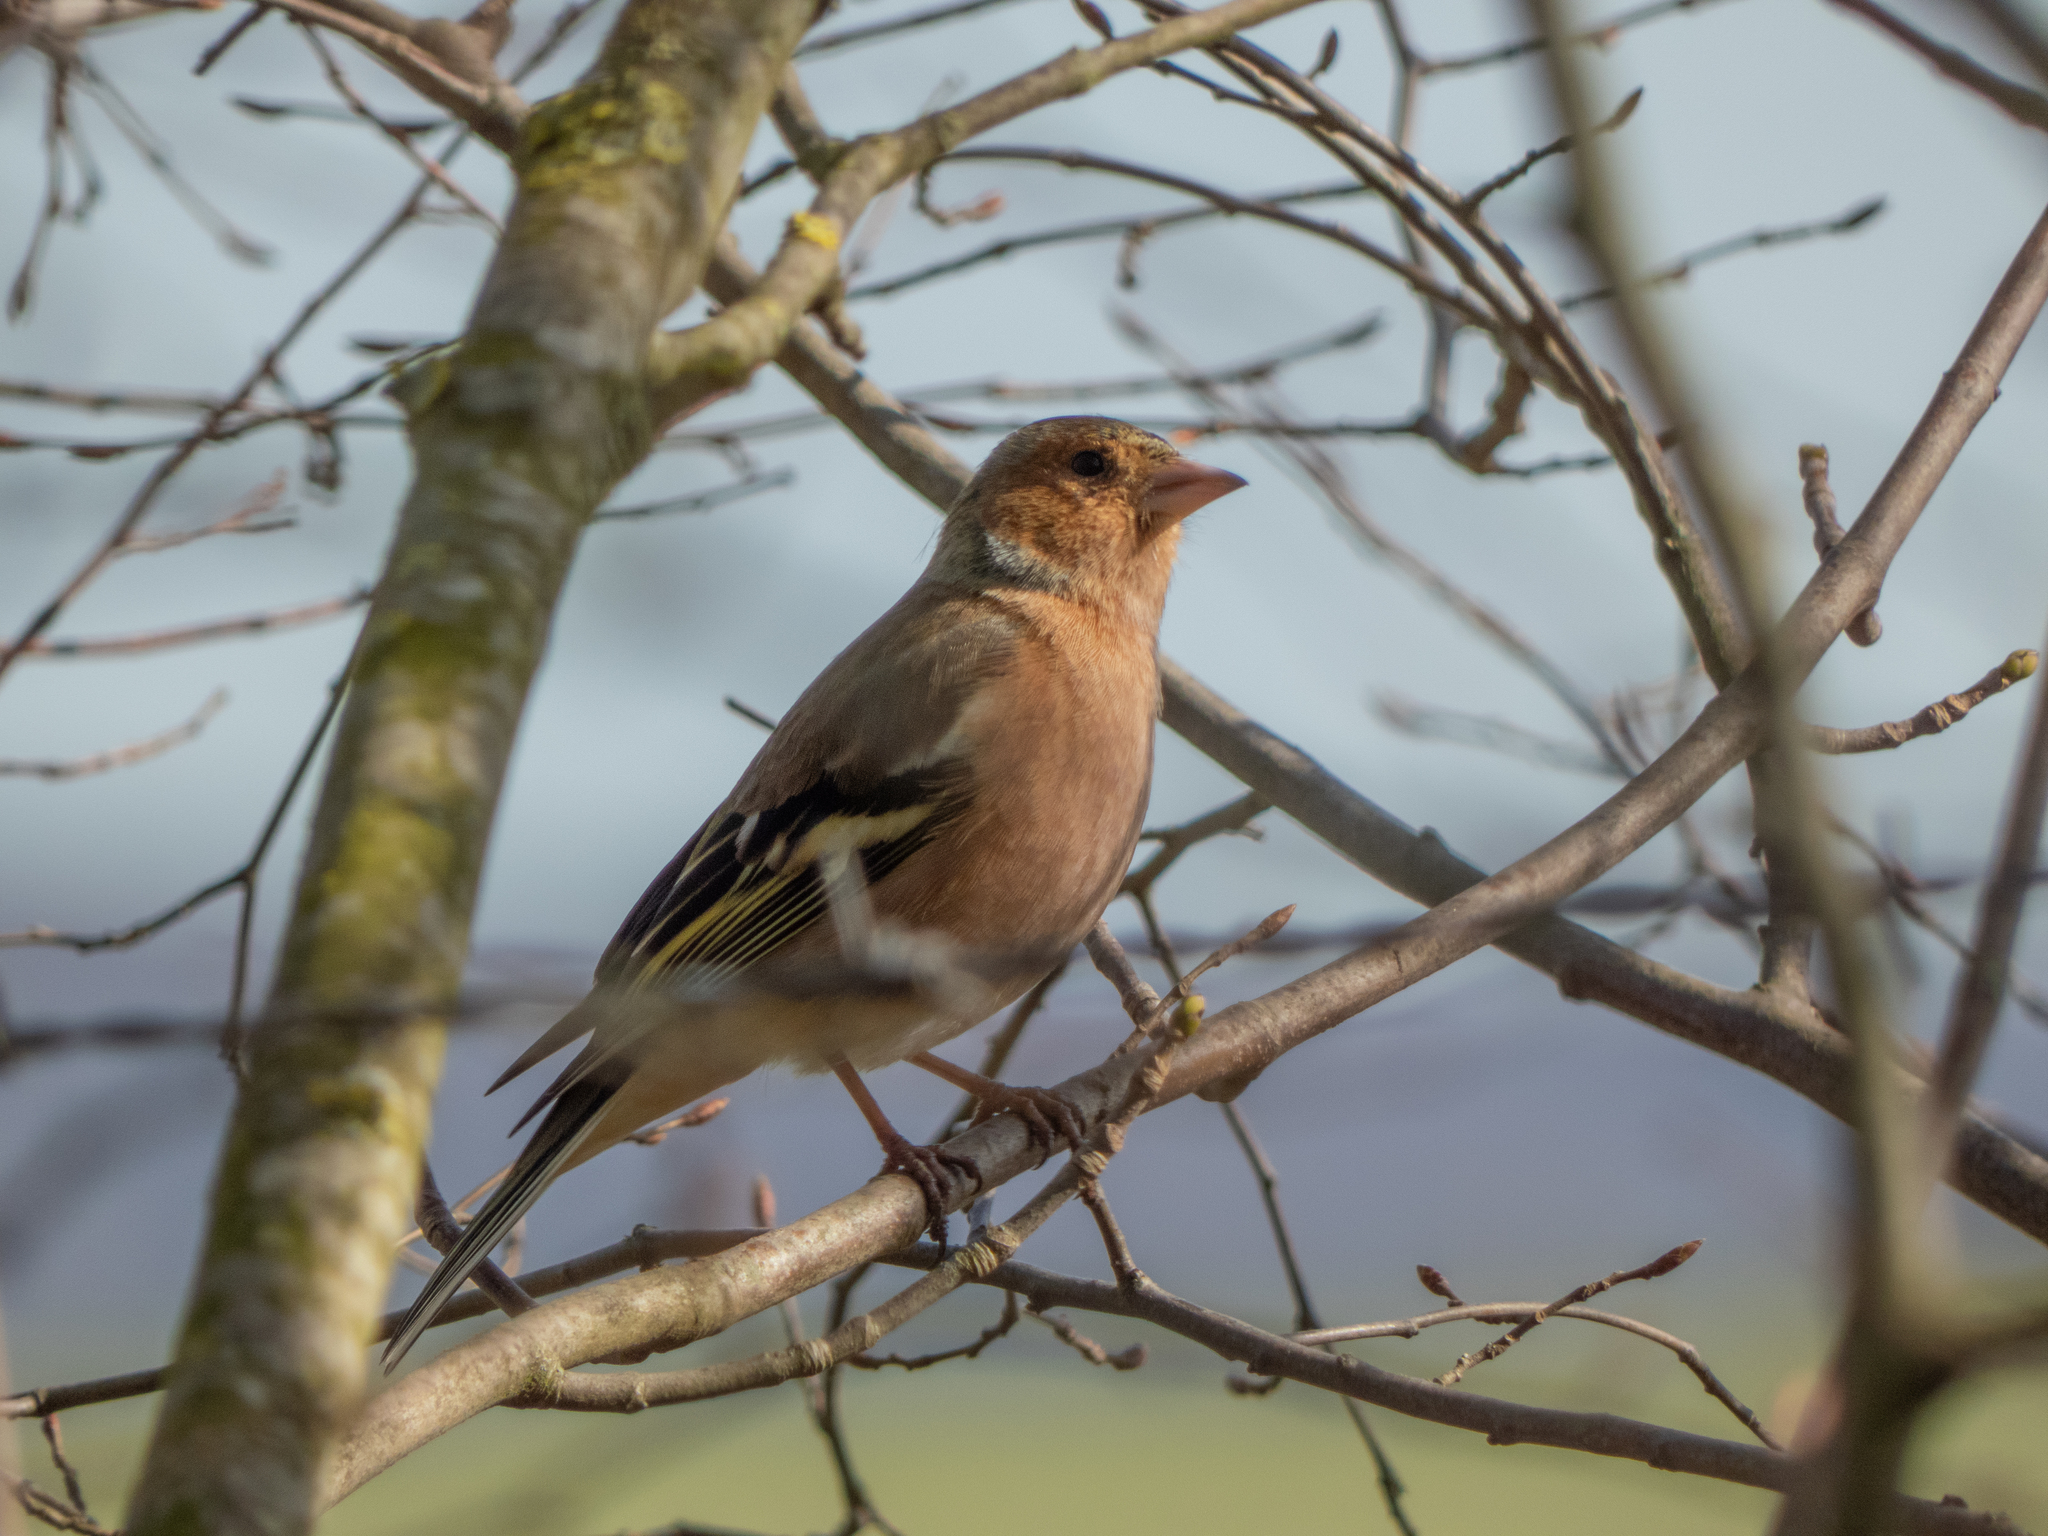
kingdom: Animalia
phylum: Chordata
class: Aves
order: Passeriformes
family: Fringillidae
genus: Fringilla
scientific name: Fringilla coelebs
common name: Common chaffinch
